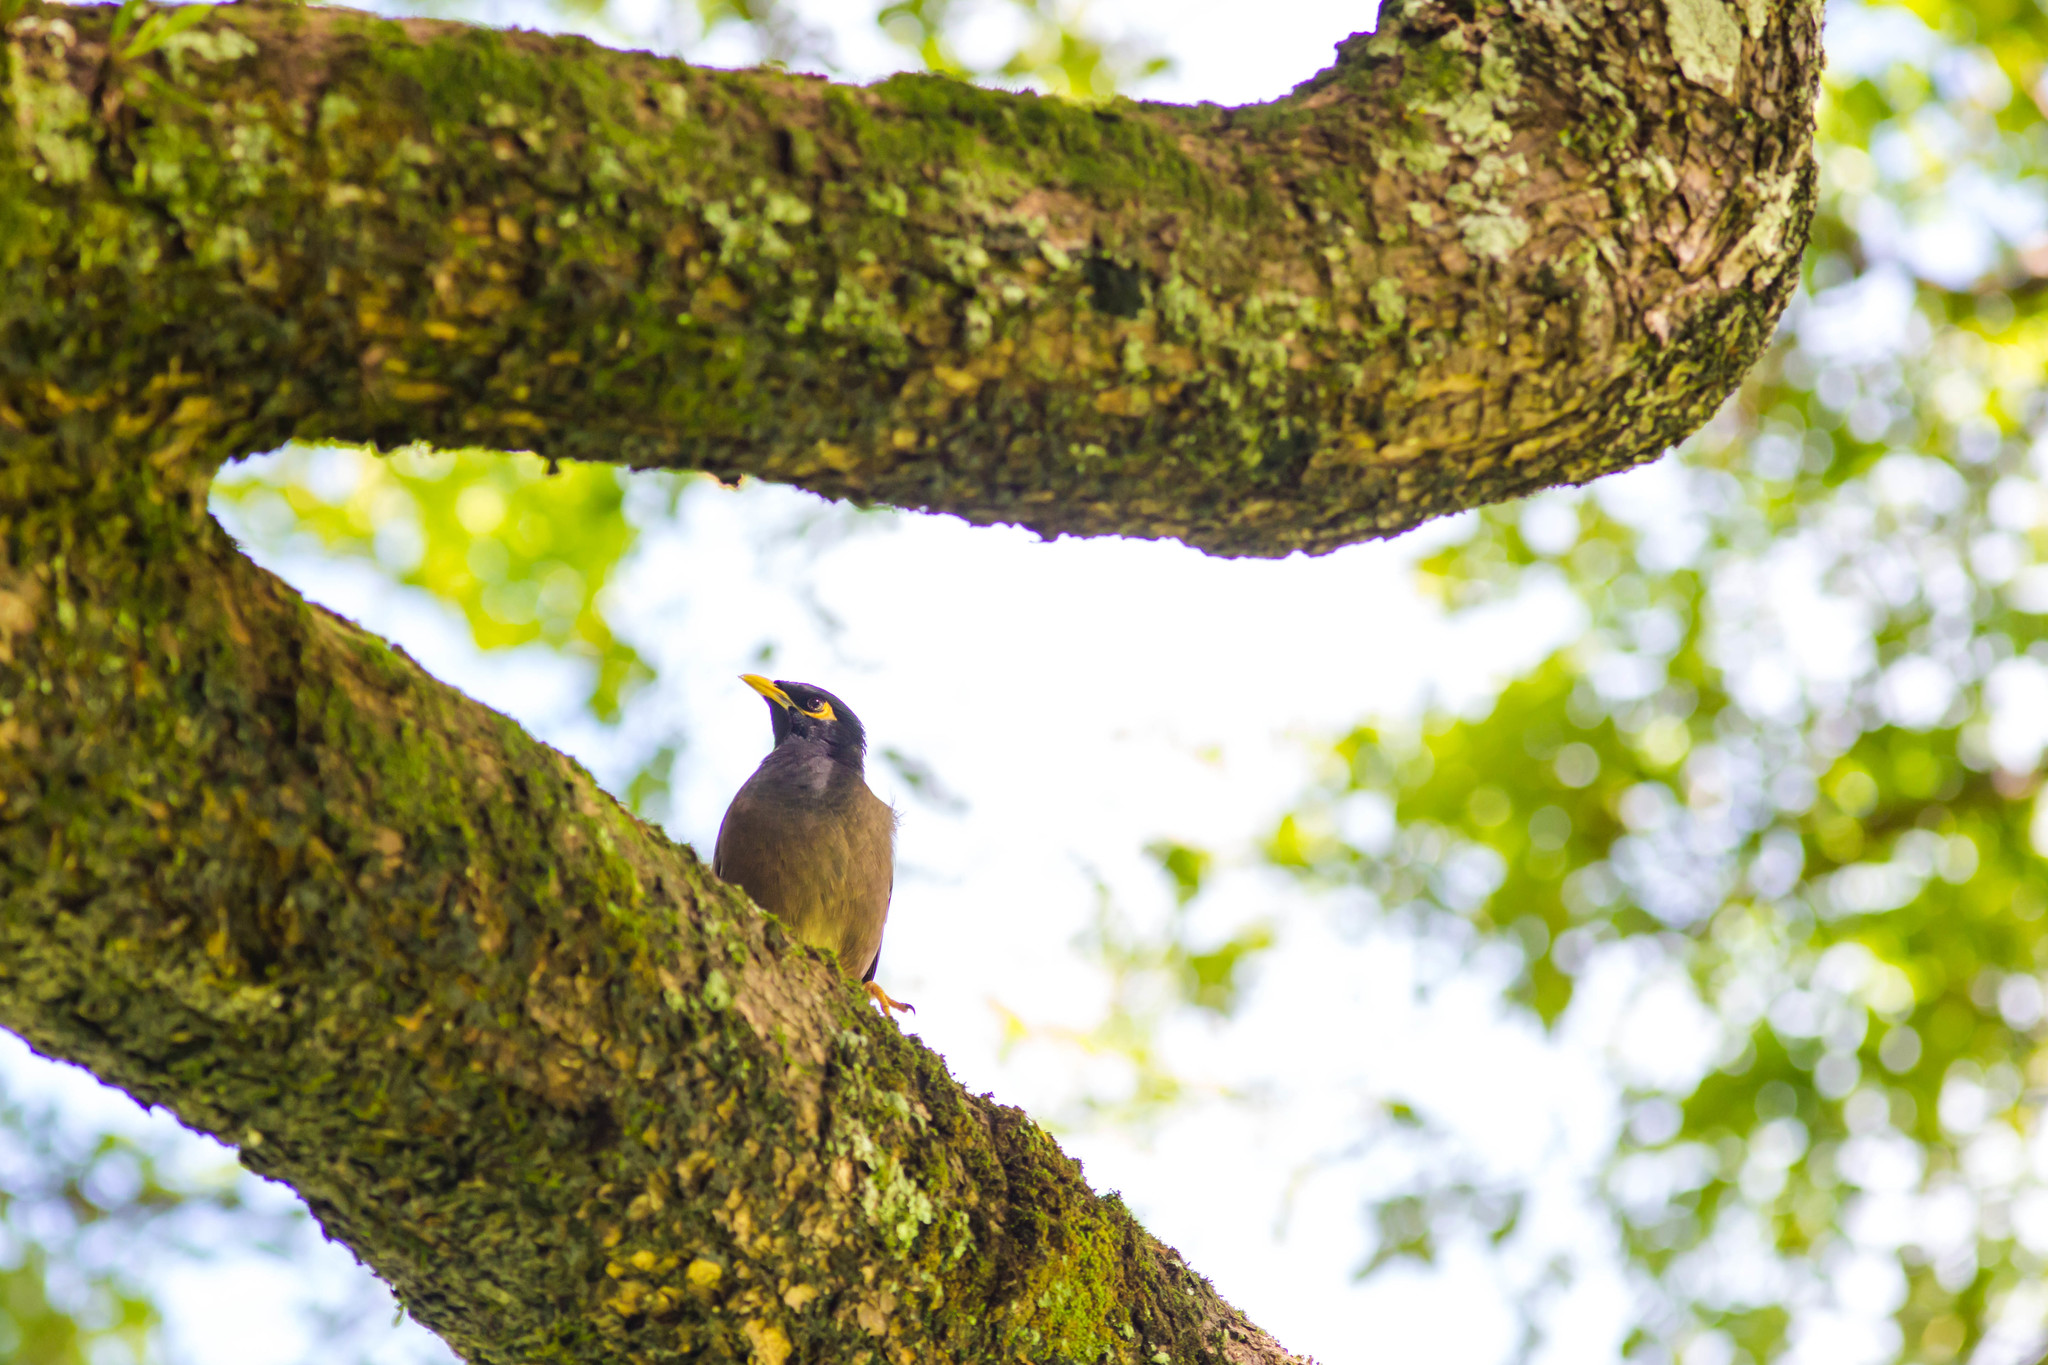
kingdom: Animalia
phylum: Chordata
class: Aves
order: Passeriformes
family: Sturnidae
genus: Acridotheres
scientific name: Acridotheres tristis
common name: Common myna
